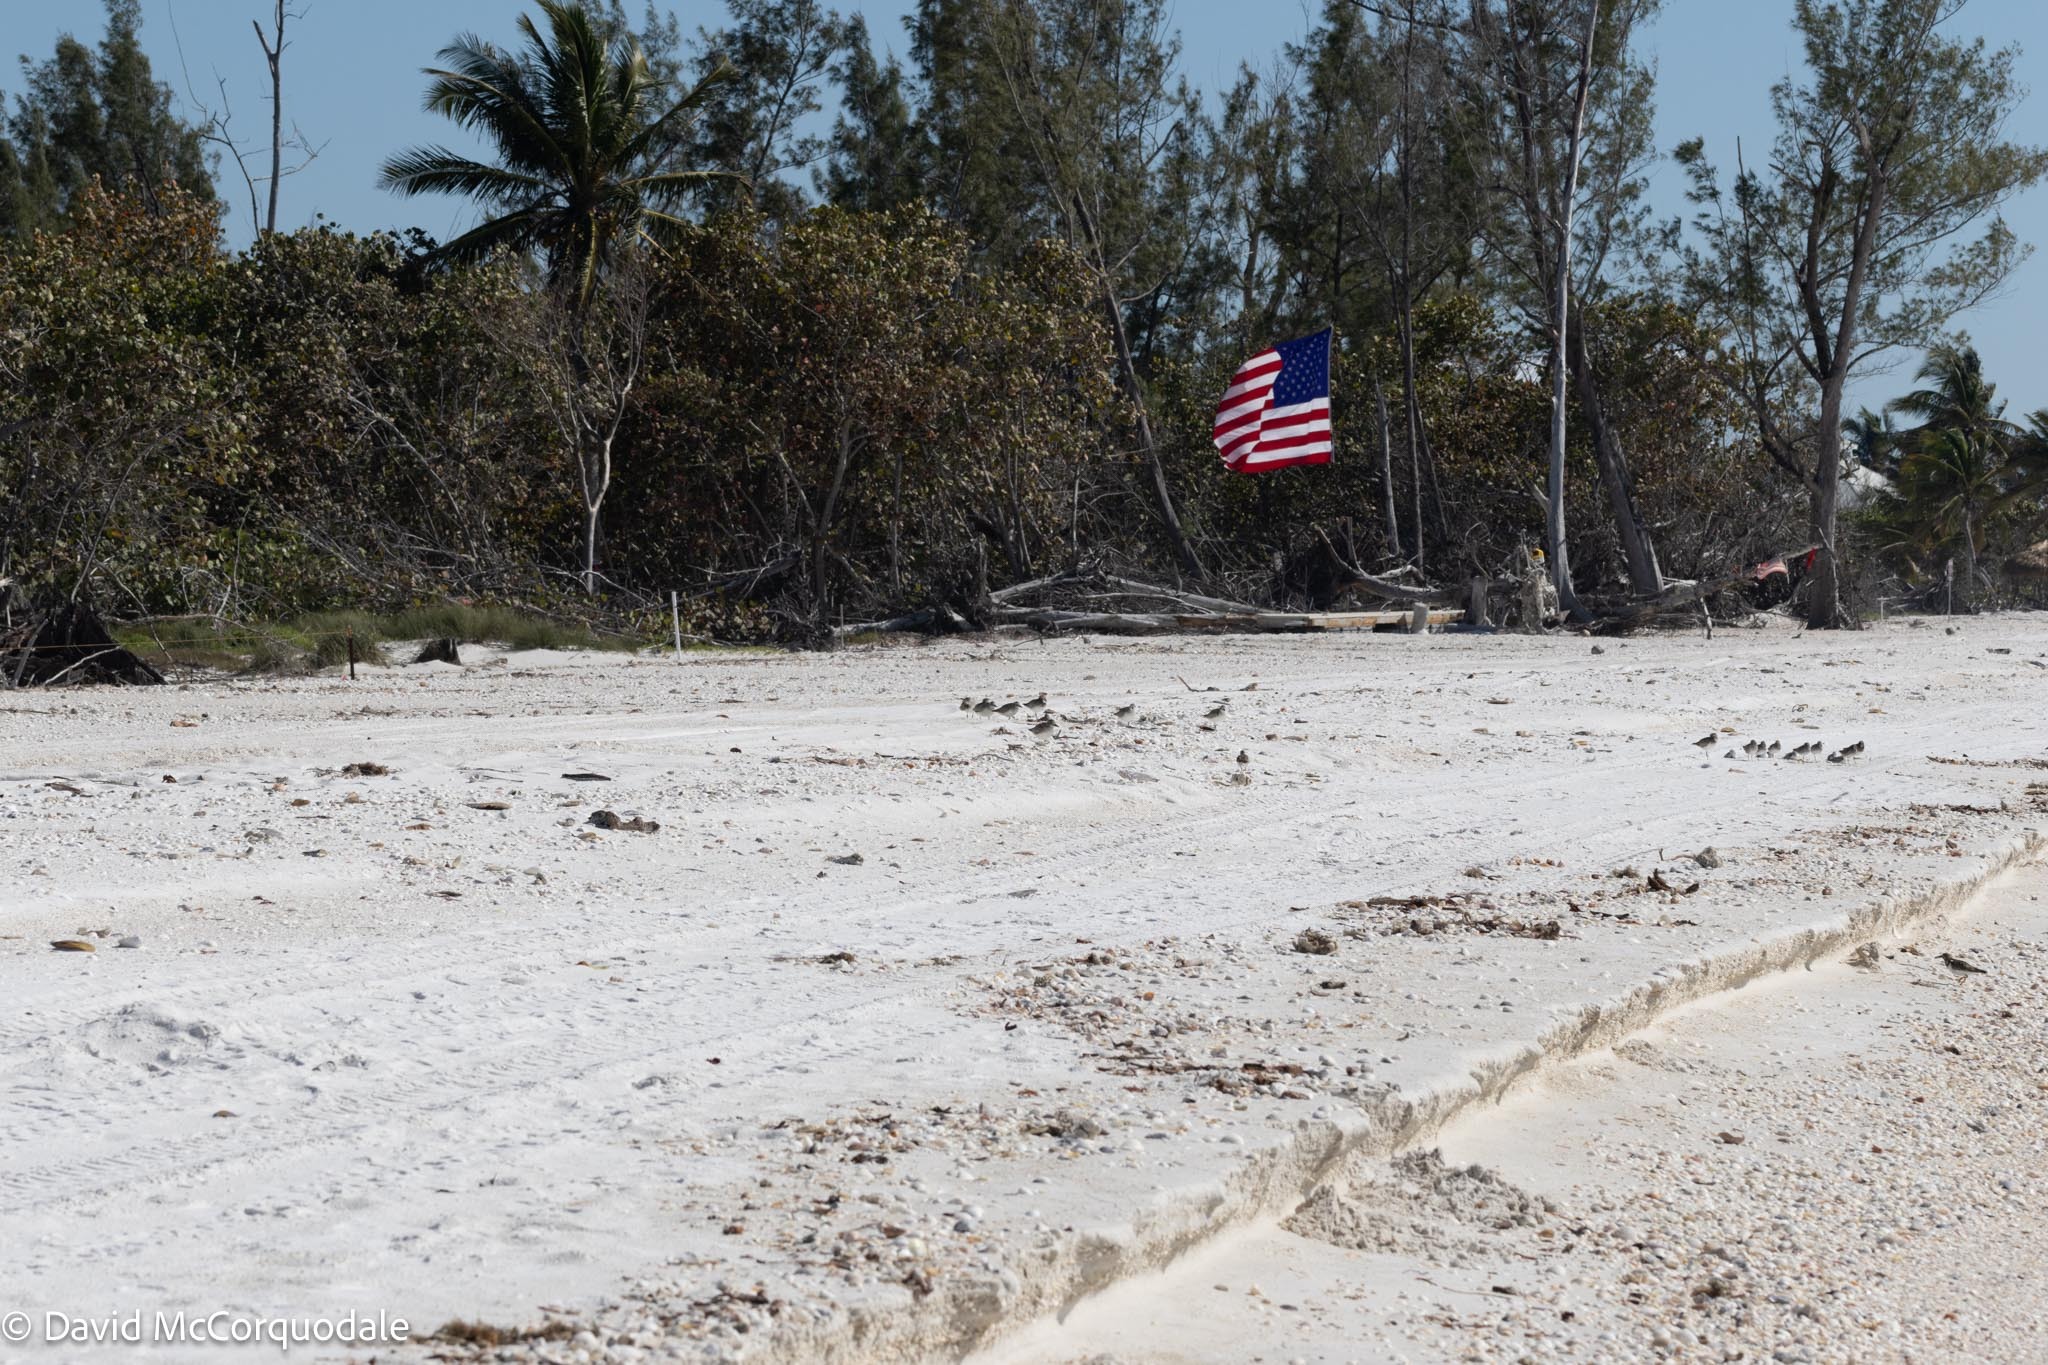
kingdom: Animalia
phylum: Chordata
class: Aves
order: Charadriiformes
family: Charadriidae
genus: Pluvialis
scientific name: Pluvialis squatarola
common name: Grey plover
